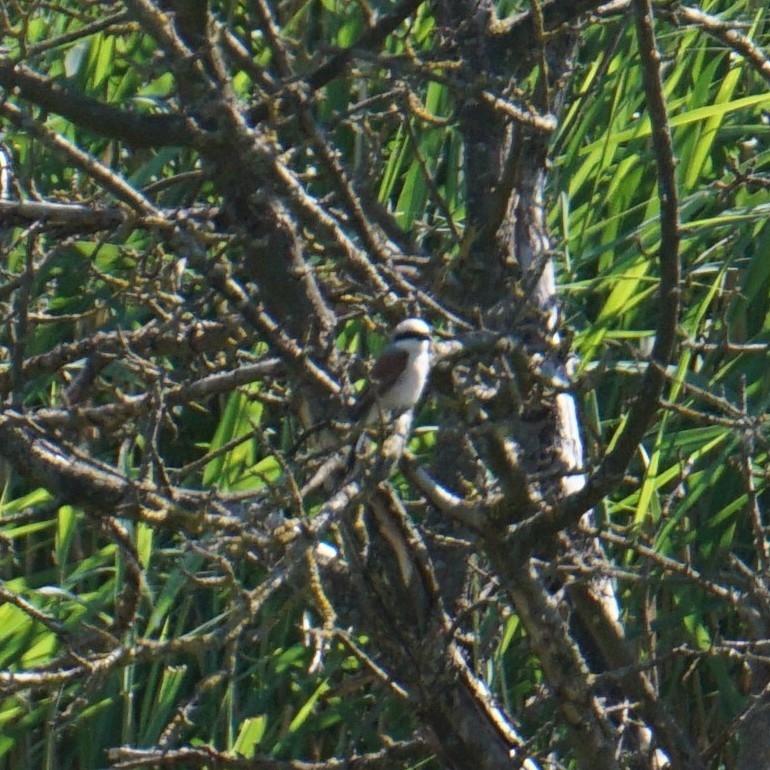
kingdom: Animalia
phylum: Chordata
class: Aves
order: Passeriformes
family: Laniidae
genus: Lanius
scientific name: Lanius collurio
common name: Red-backed shrike
